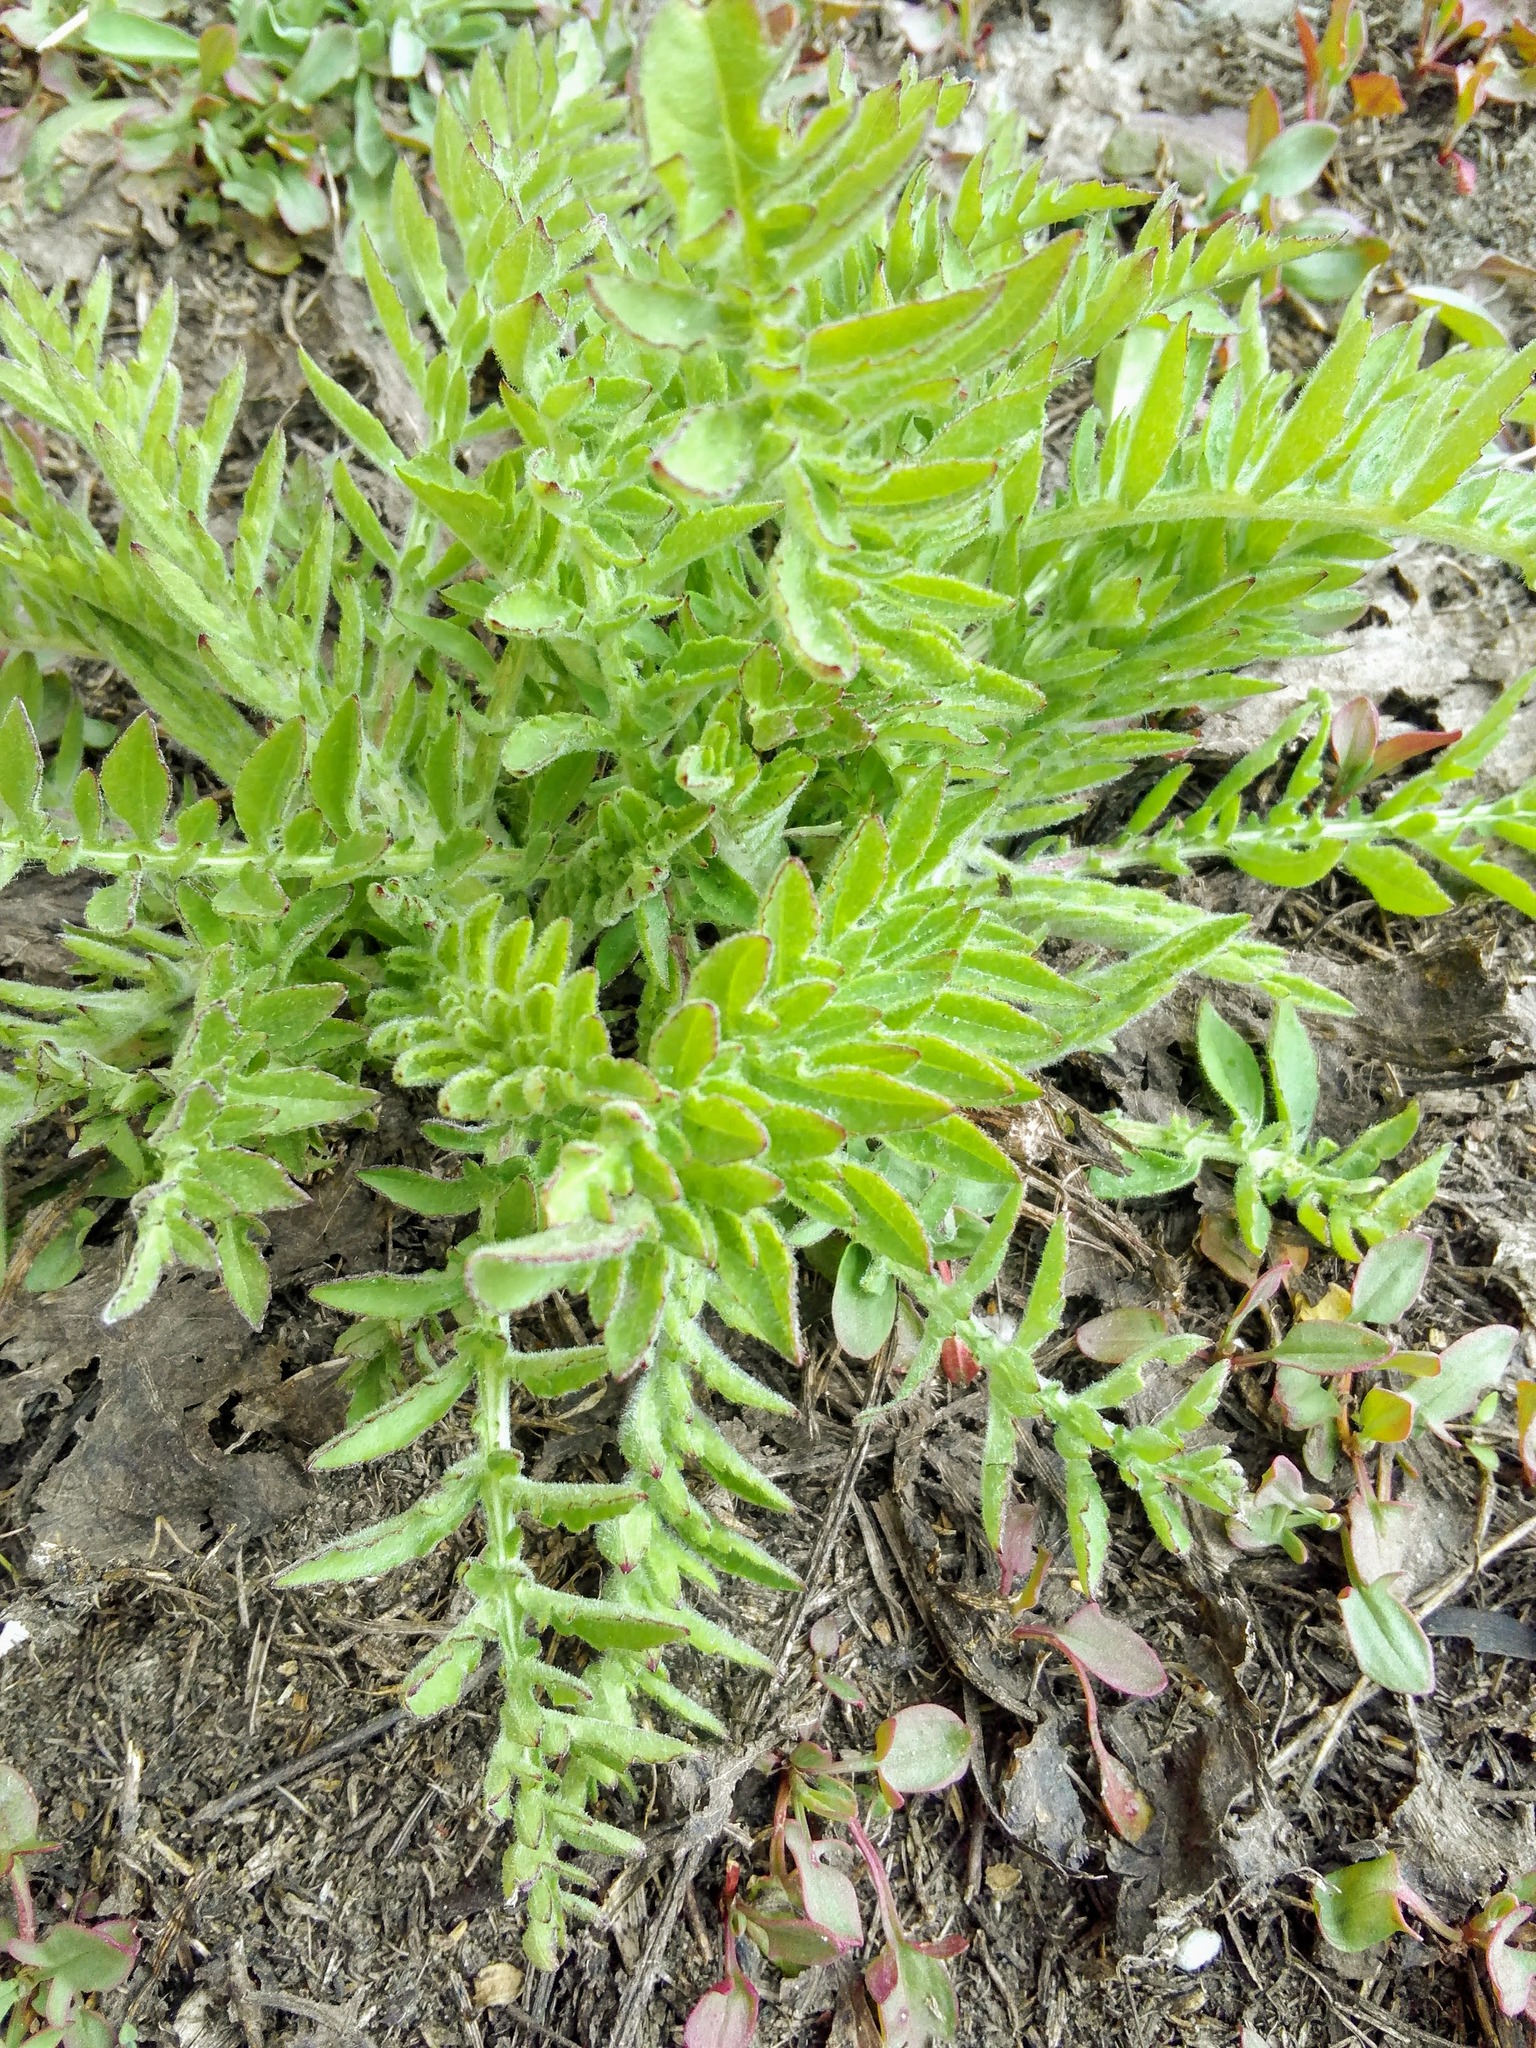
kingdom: Plantae
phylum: Tracheophyta
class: Magnoliopsida
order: Asterales
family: Asteraceae
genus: Centaurea
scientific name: Centaurea scabiosa
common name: Greater knapweed
